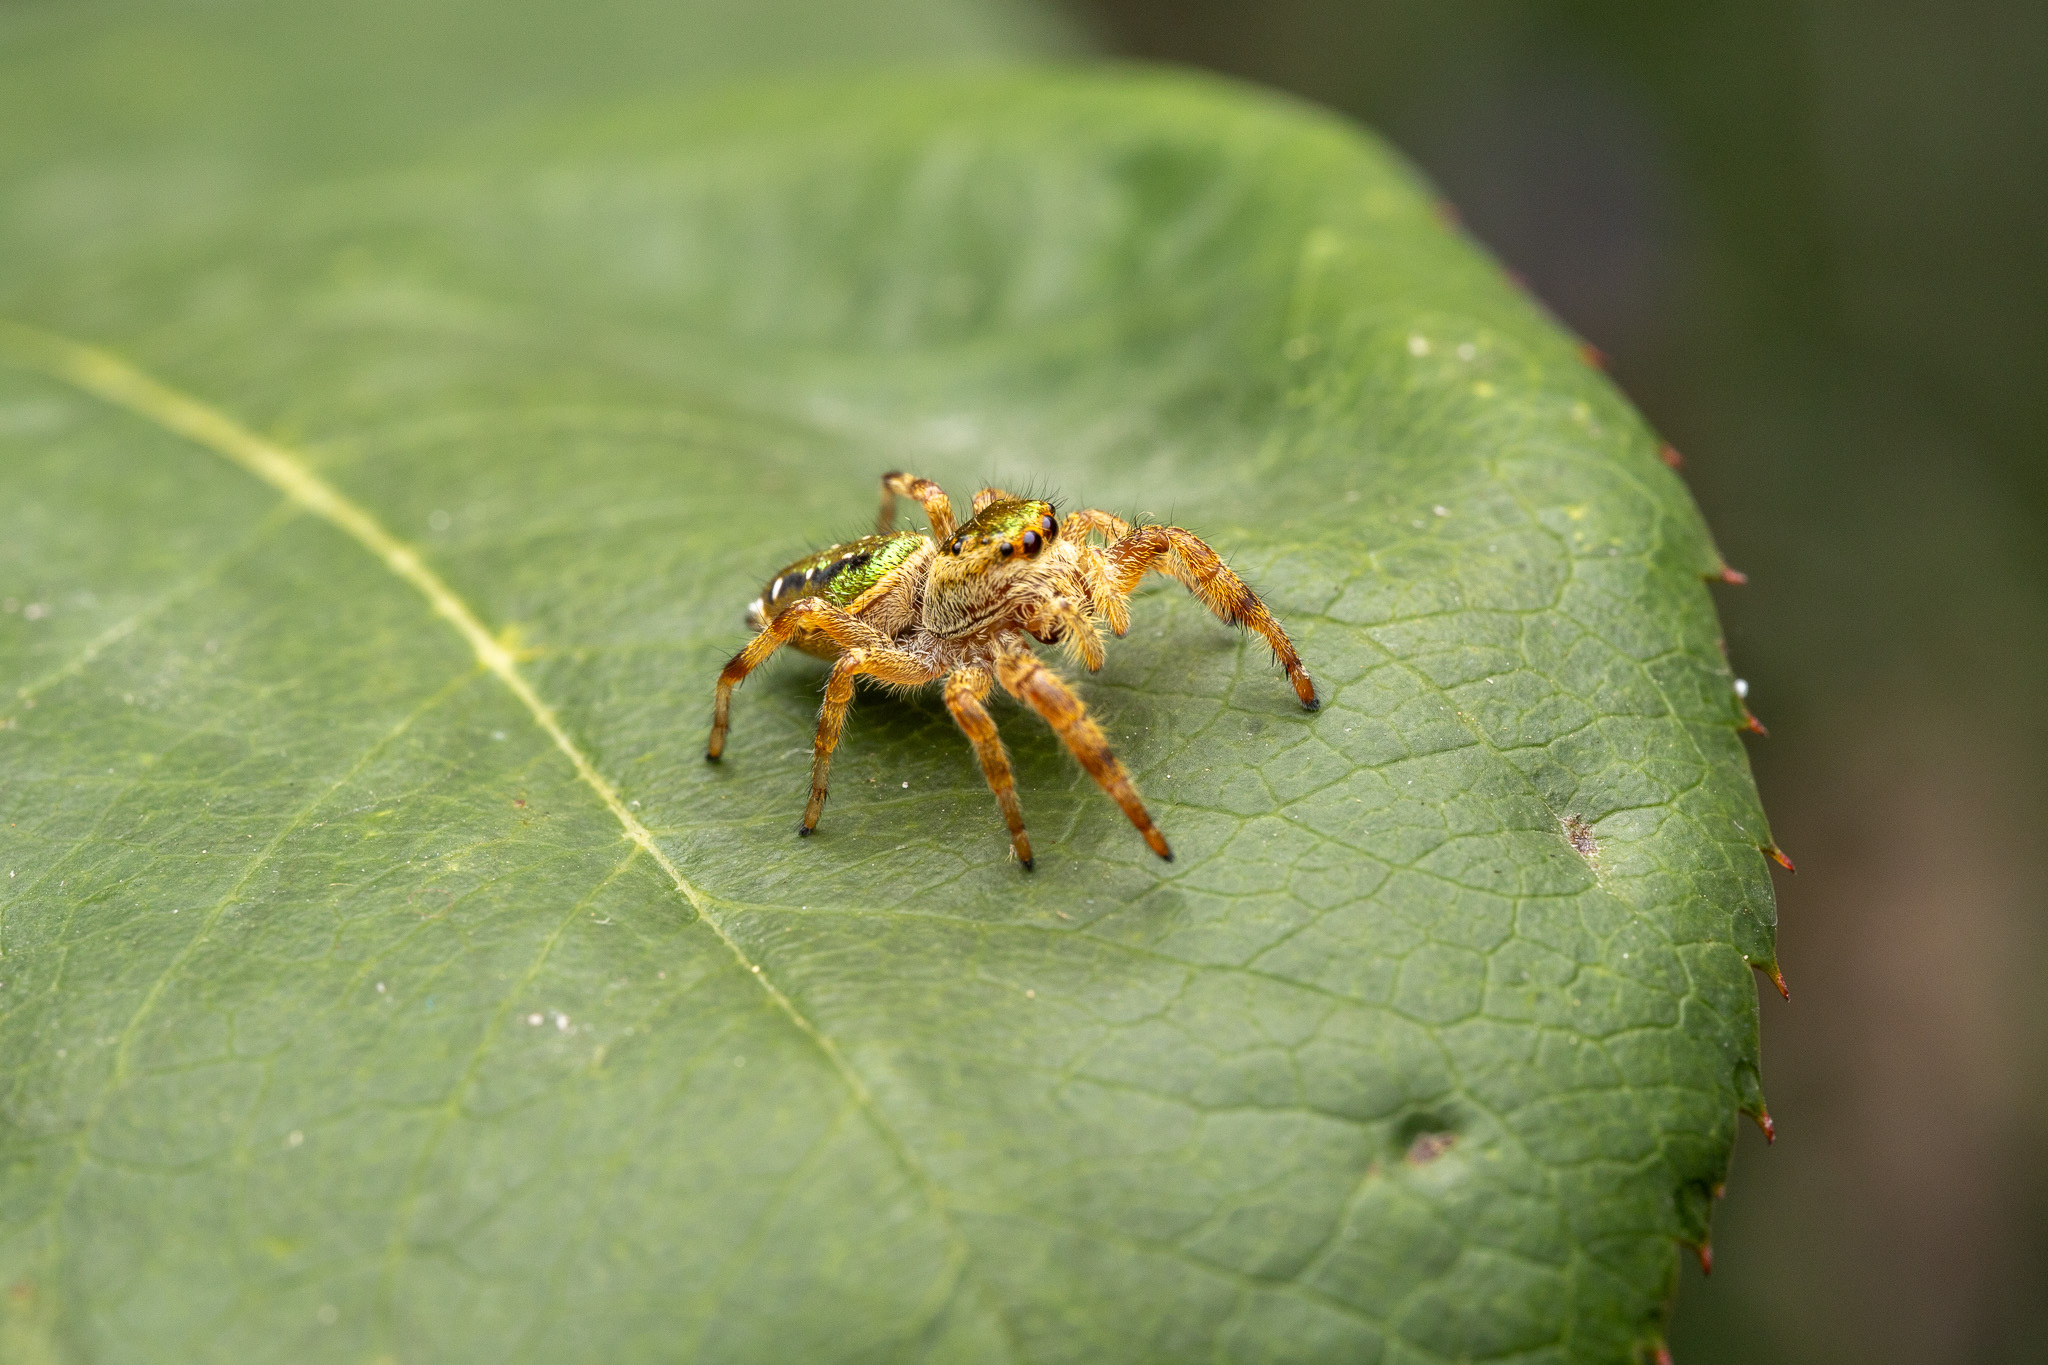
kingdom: Animalia
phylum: Arthropoda
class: Arachnida
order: Araneae
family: Salticidae
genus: Paraphidippus
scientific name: Paraphidippus aurantius
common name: Jumping spiders
